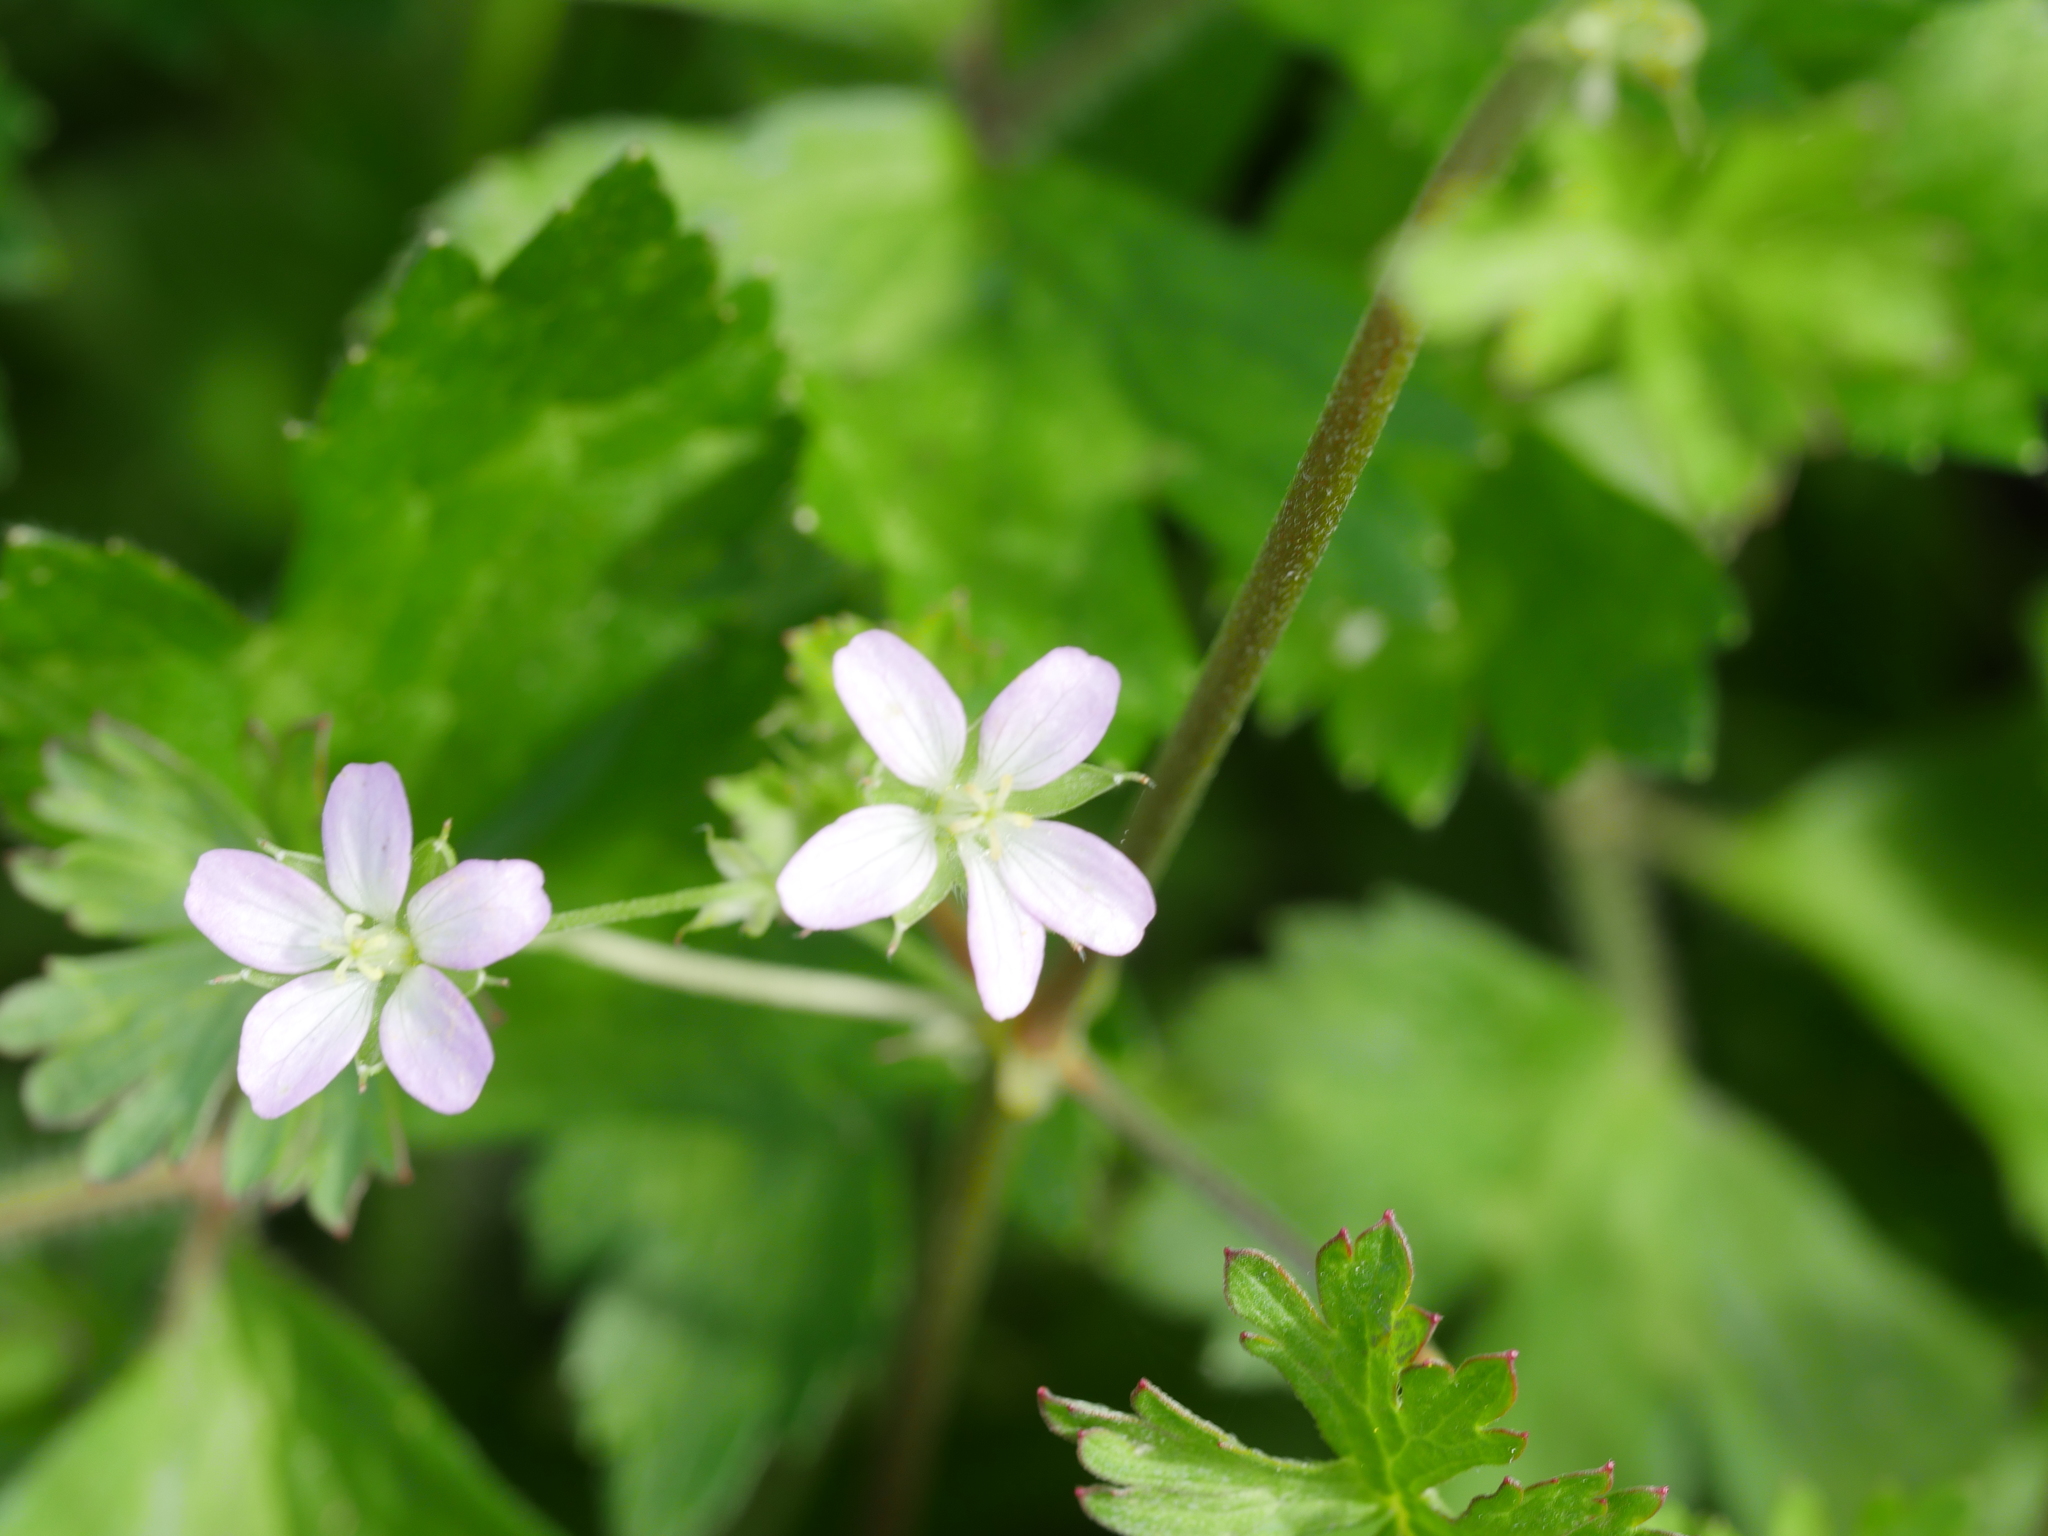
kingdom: Plantae
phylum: Tracheophyta
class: Magnoliopsida
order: Geraniales
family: Geraniaceae
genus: Geranium
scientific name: Geranium dissectum
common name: Cut-leaved crane's-bill
